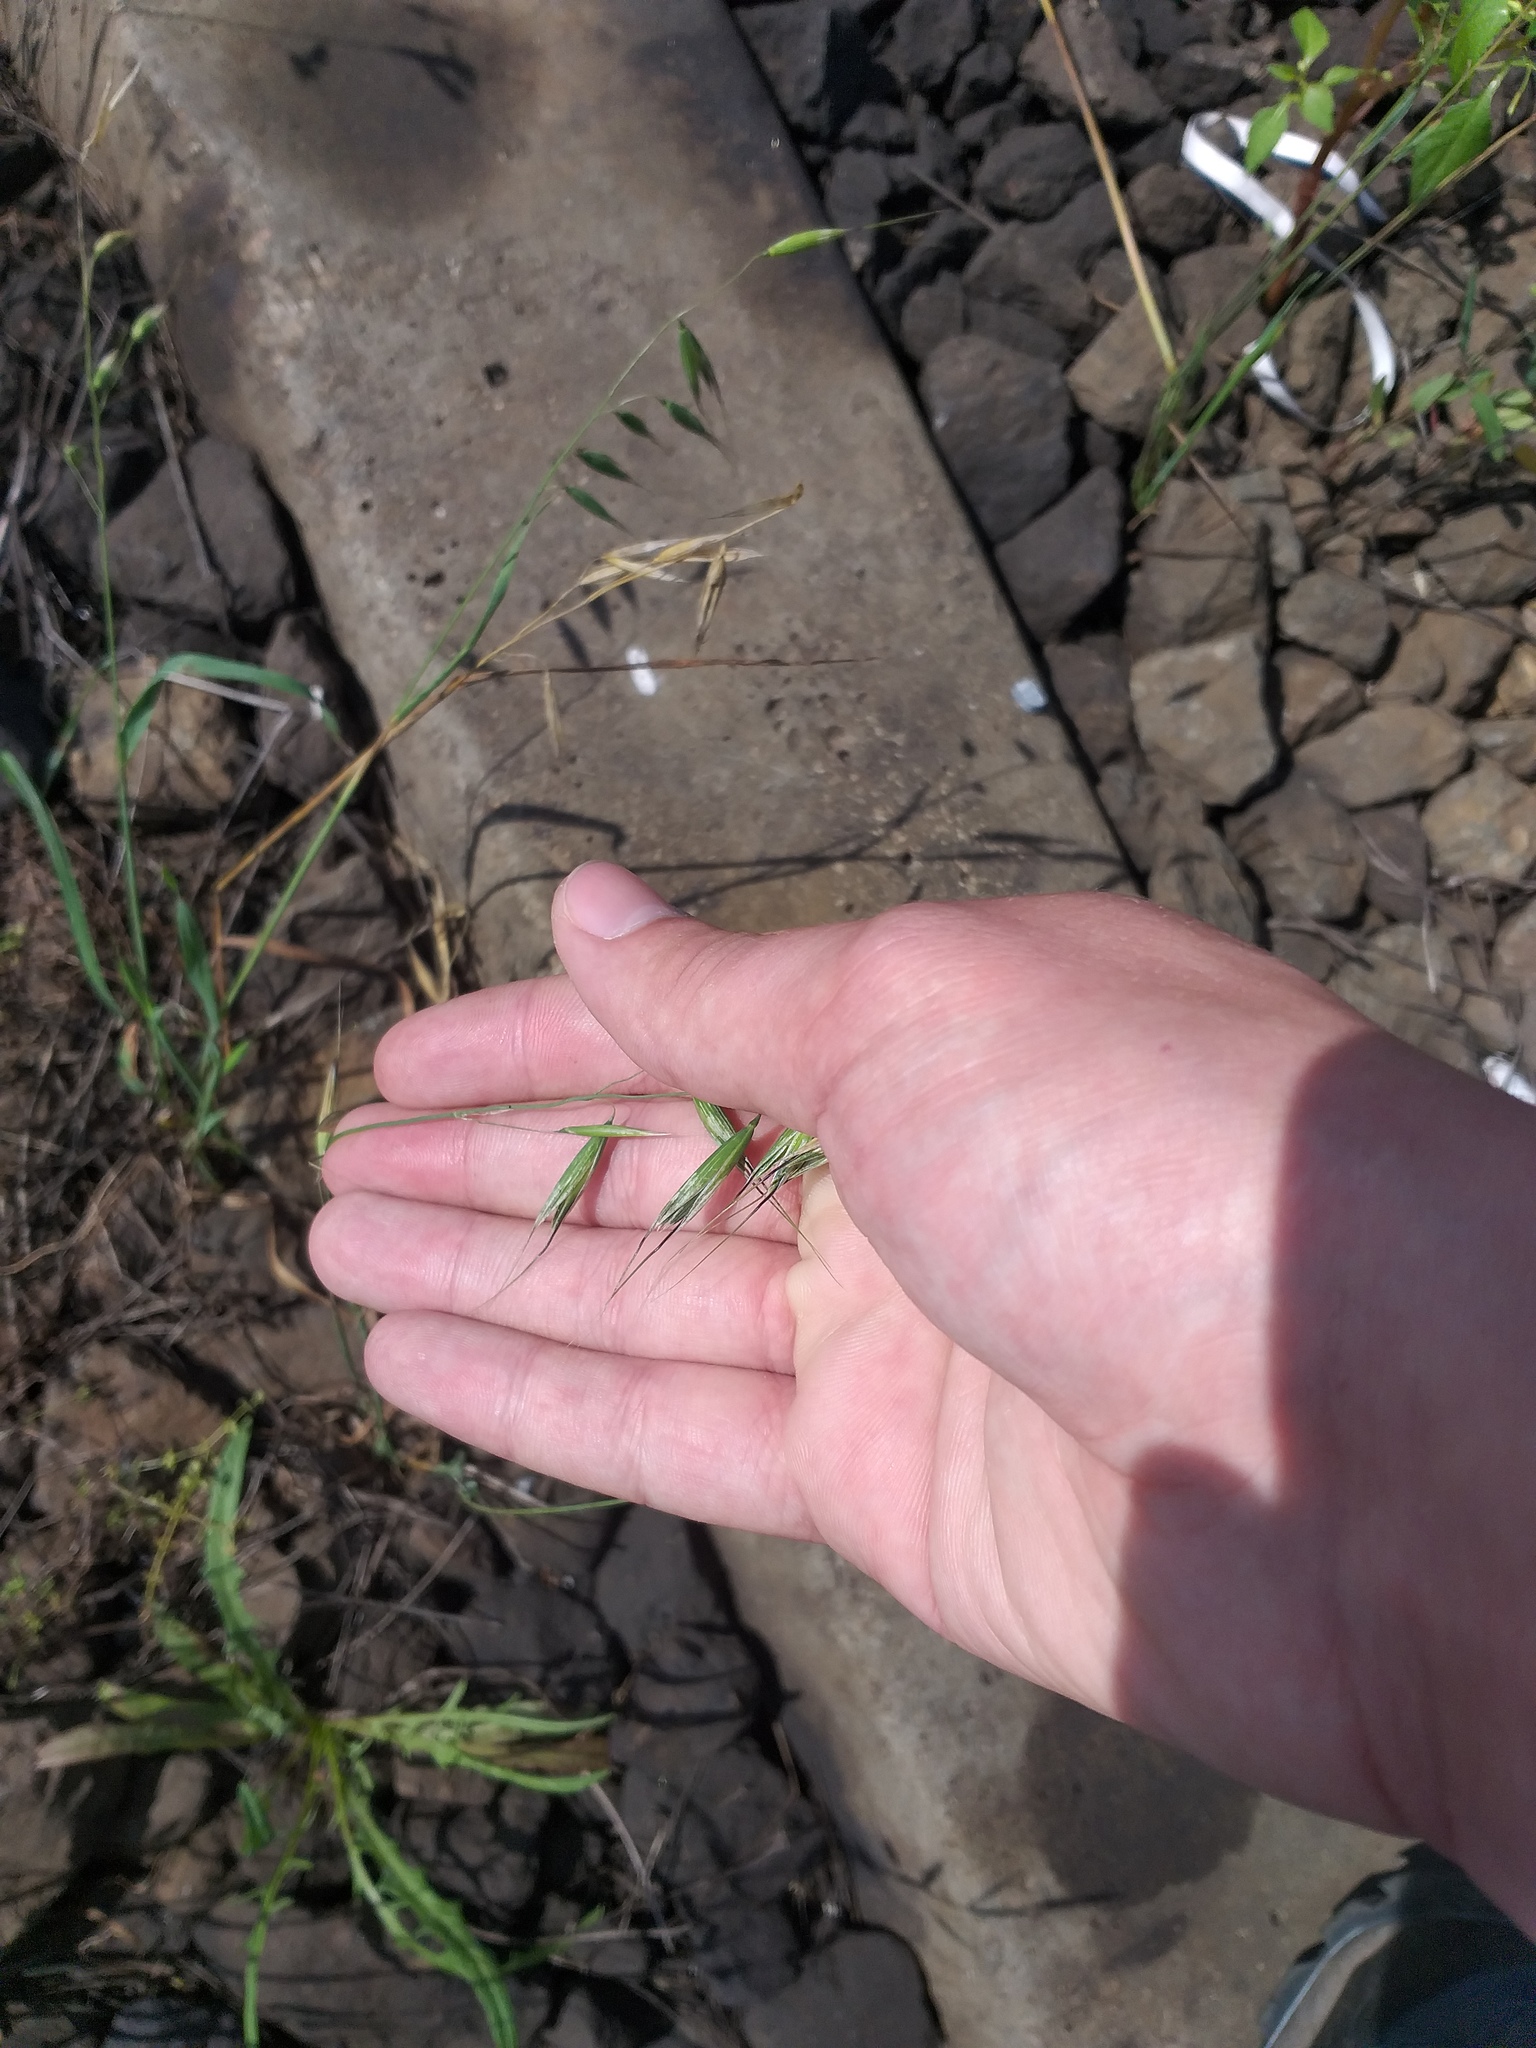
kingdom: Plantae
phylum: Tracheophyta
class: Liliopsida
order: Poales
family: Poaceae
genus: Avena
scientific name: Avena fatua
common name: Wild oat
